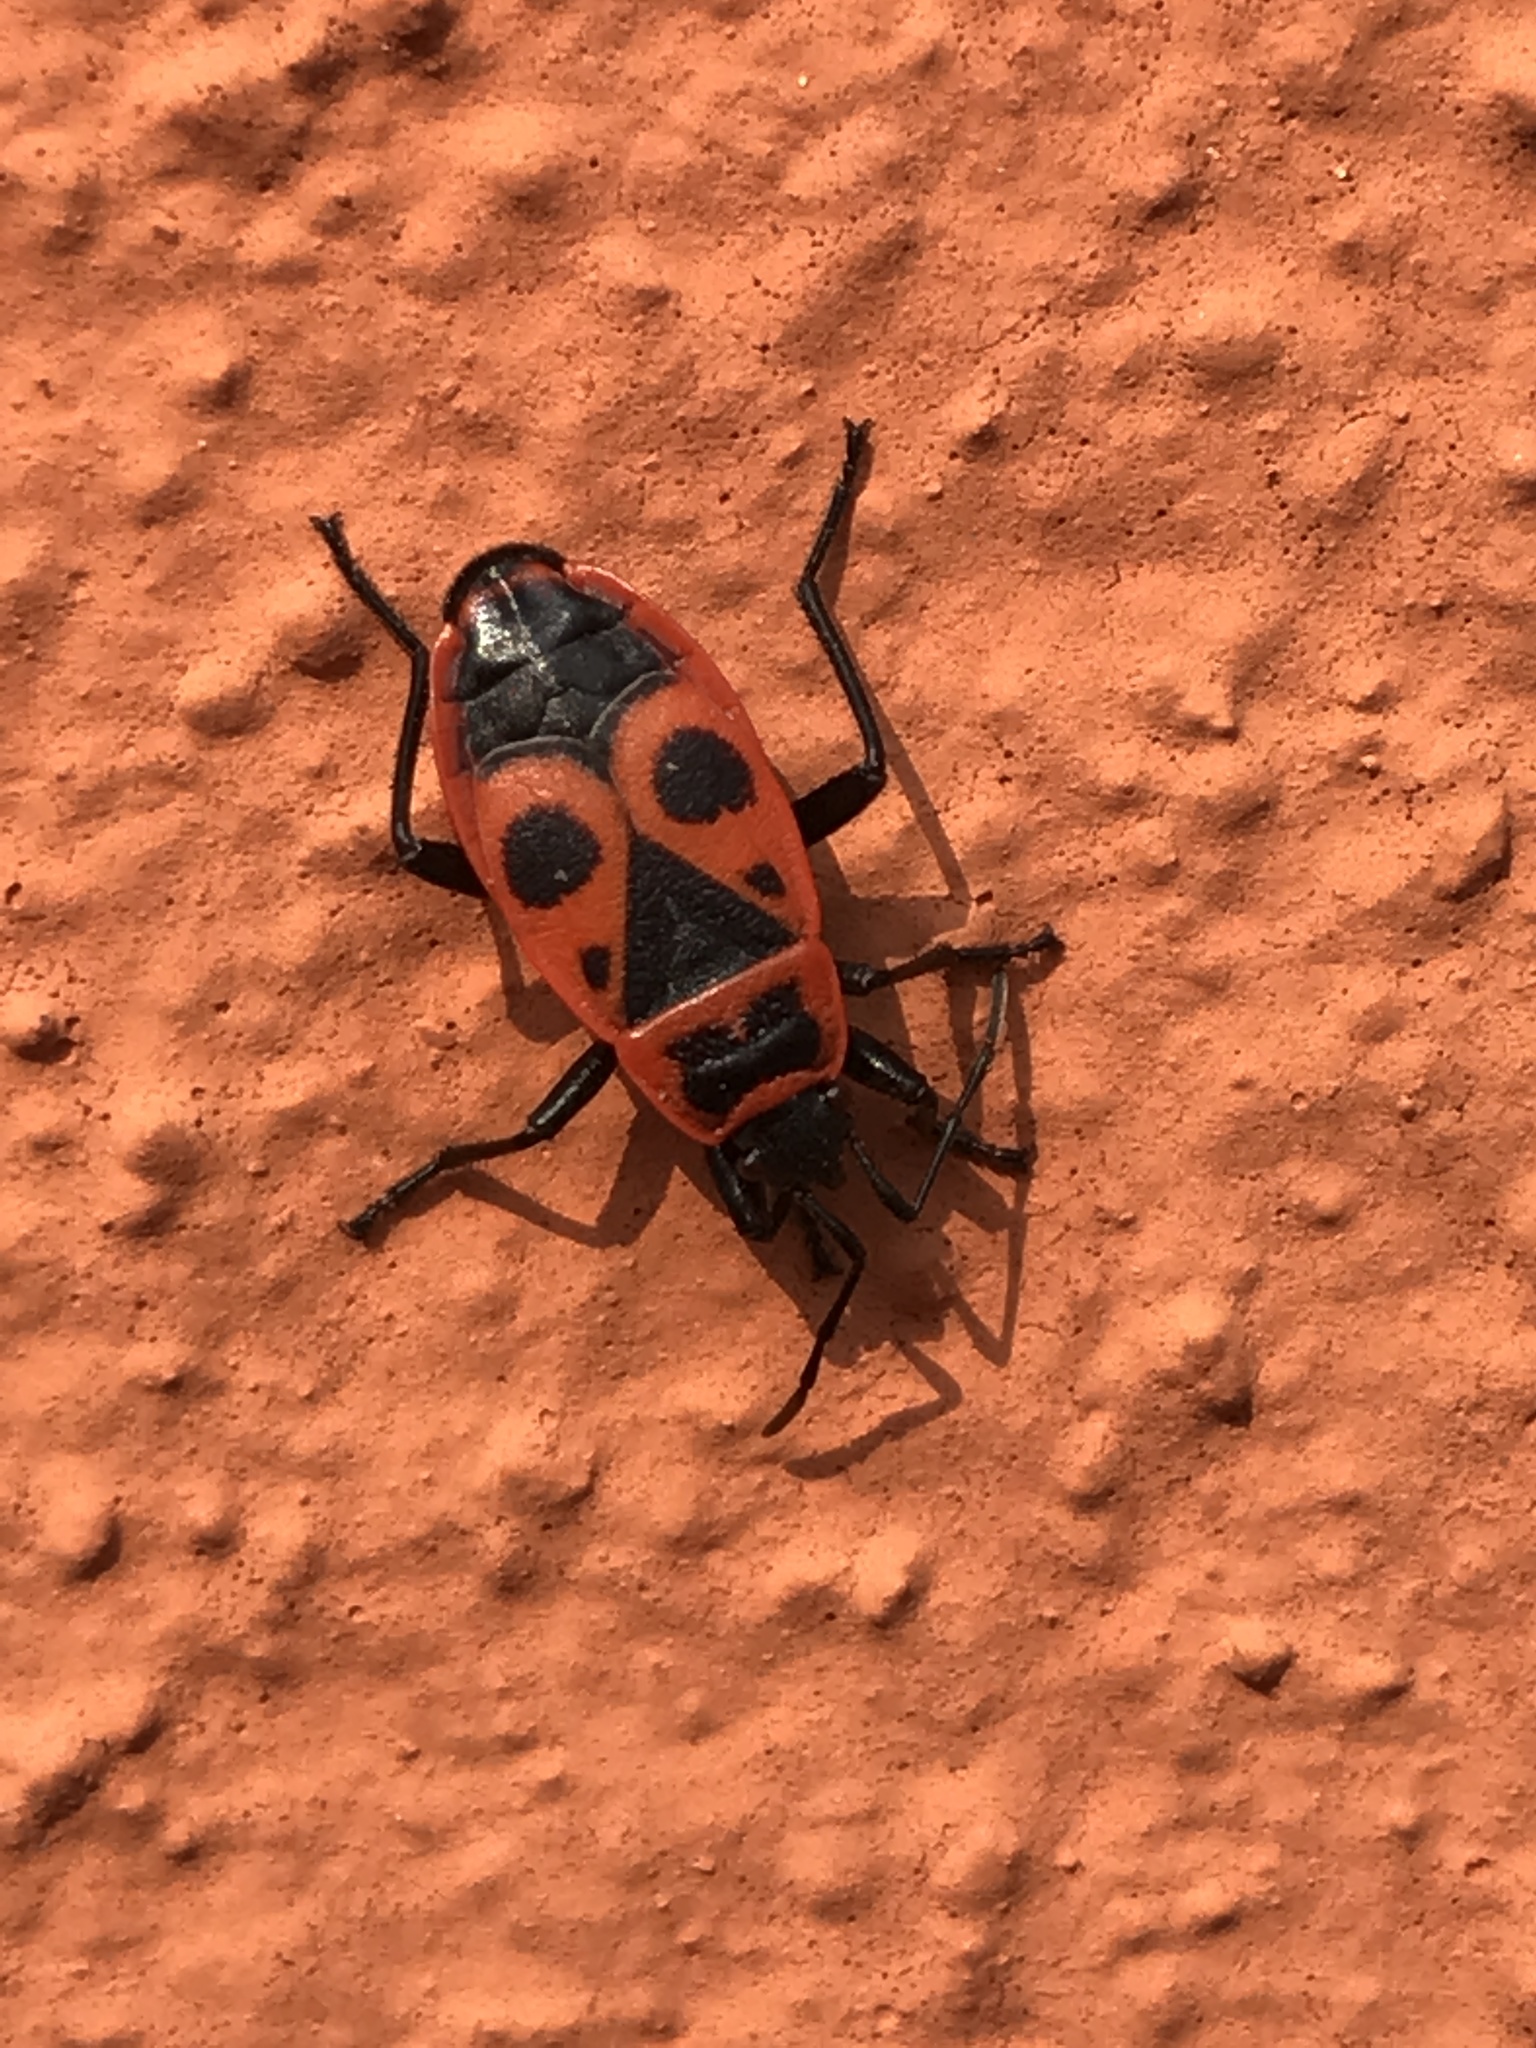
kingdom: Animalia
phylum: Arthropoda
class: Insecta
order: Hemiptera
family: Pyrrhocoridae
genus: Pyrrhocoris
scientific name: Pyrrhocoris apterus
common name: Firebug
